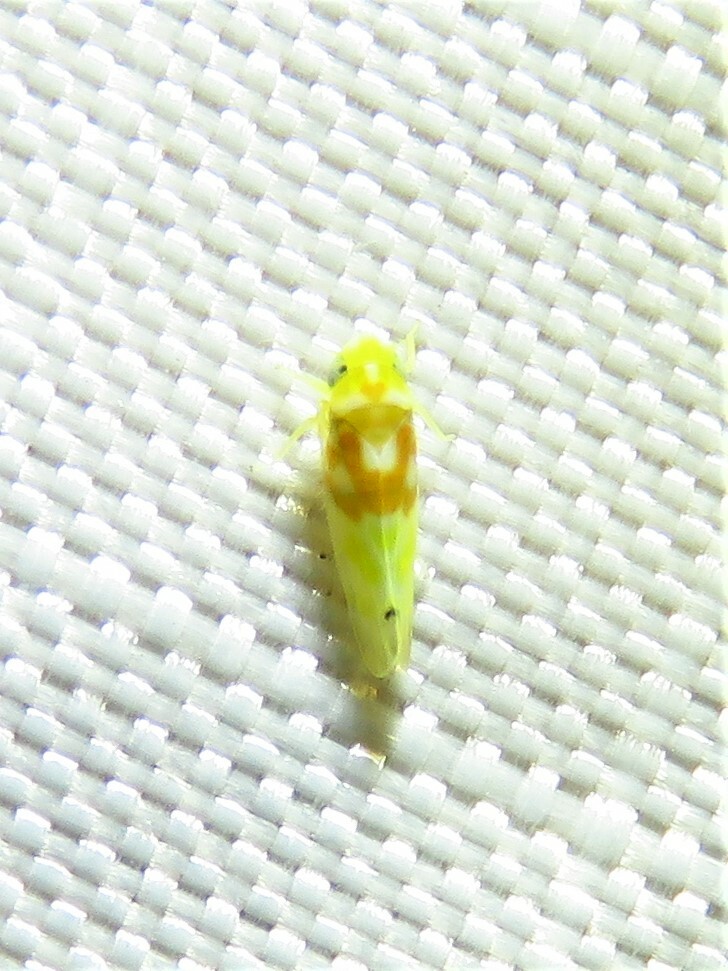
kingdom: Animalia
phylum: Arthropoda
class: Insecta
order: Hemiptera
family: Cicadellidae
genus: Eratoneura
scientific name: Eratoneura affinis
